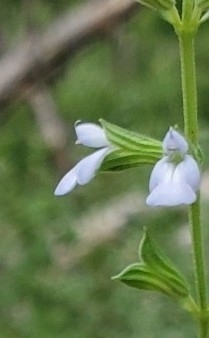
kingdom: Plantae
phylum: Tracheophyta
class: Magnoliopsida
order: Lamiales
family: Lamiaceae
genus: Salvia
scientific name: Salvia reflexa
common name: Mintweed
